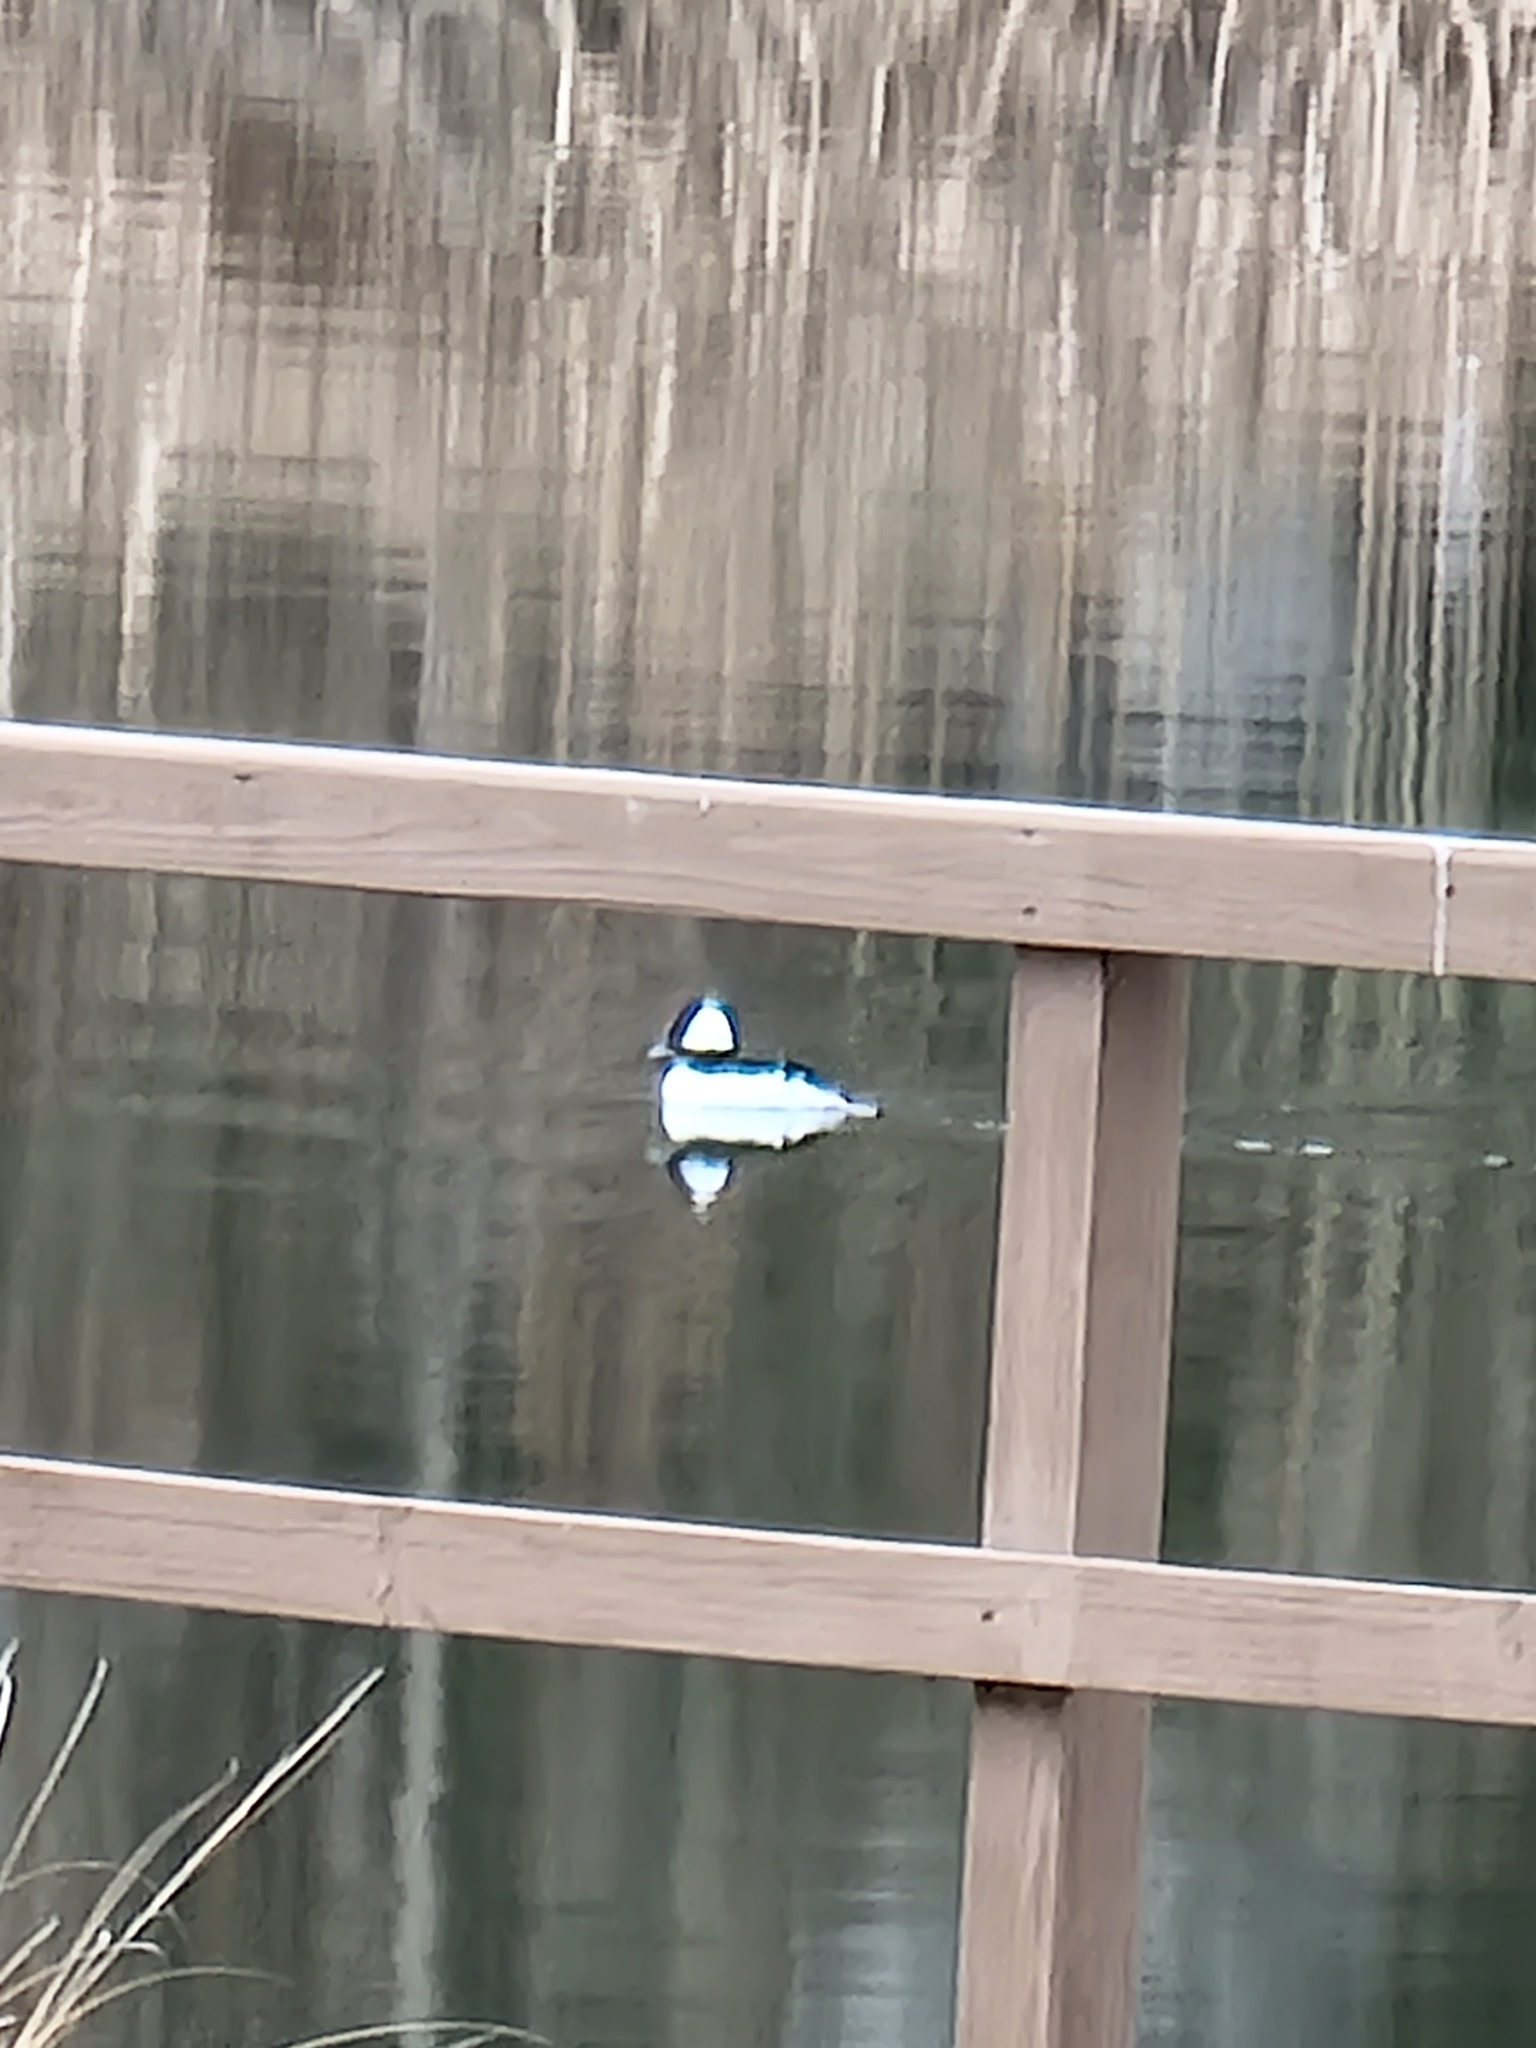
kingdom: Animalia
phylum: Chordata
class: Aves
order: Anseriformes
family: Anatidae
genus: Bucephala
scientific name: Bucephala albeola
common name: Bufflehead
